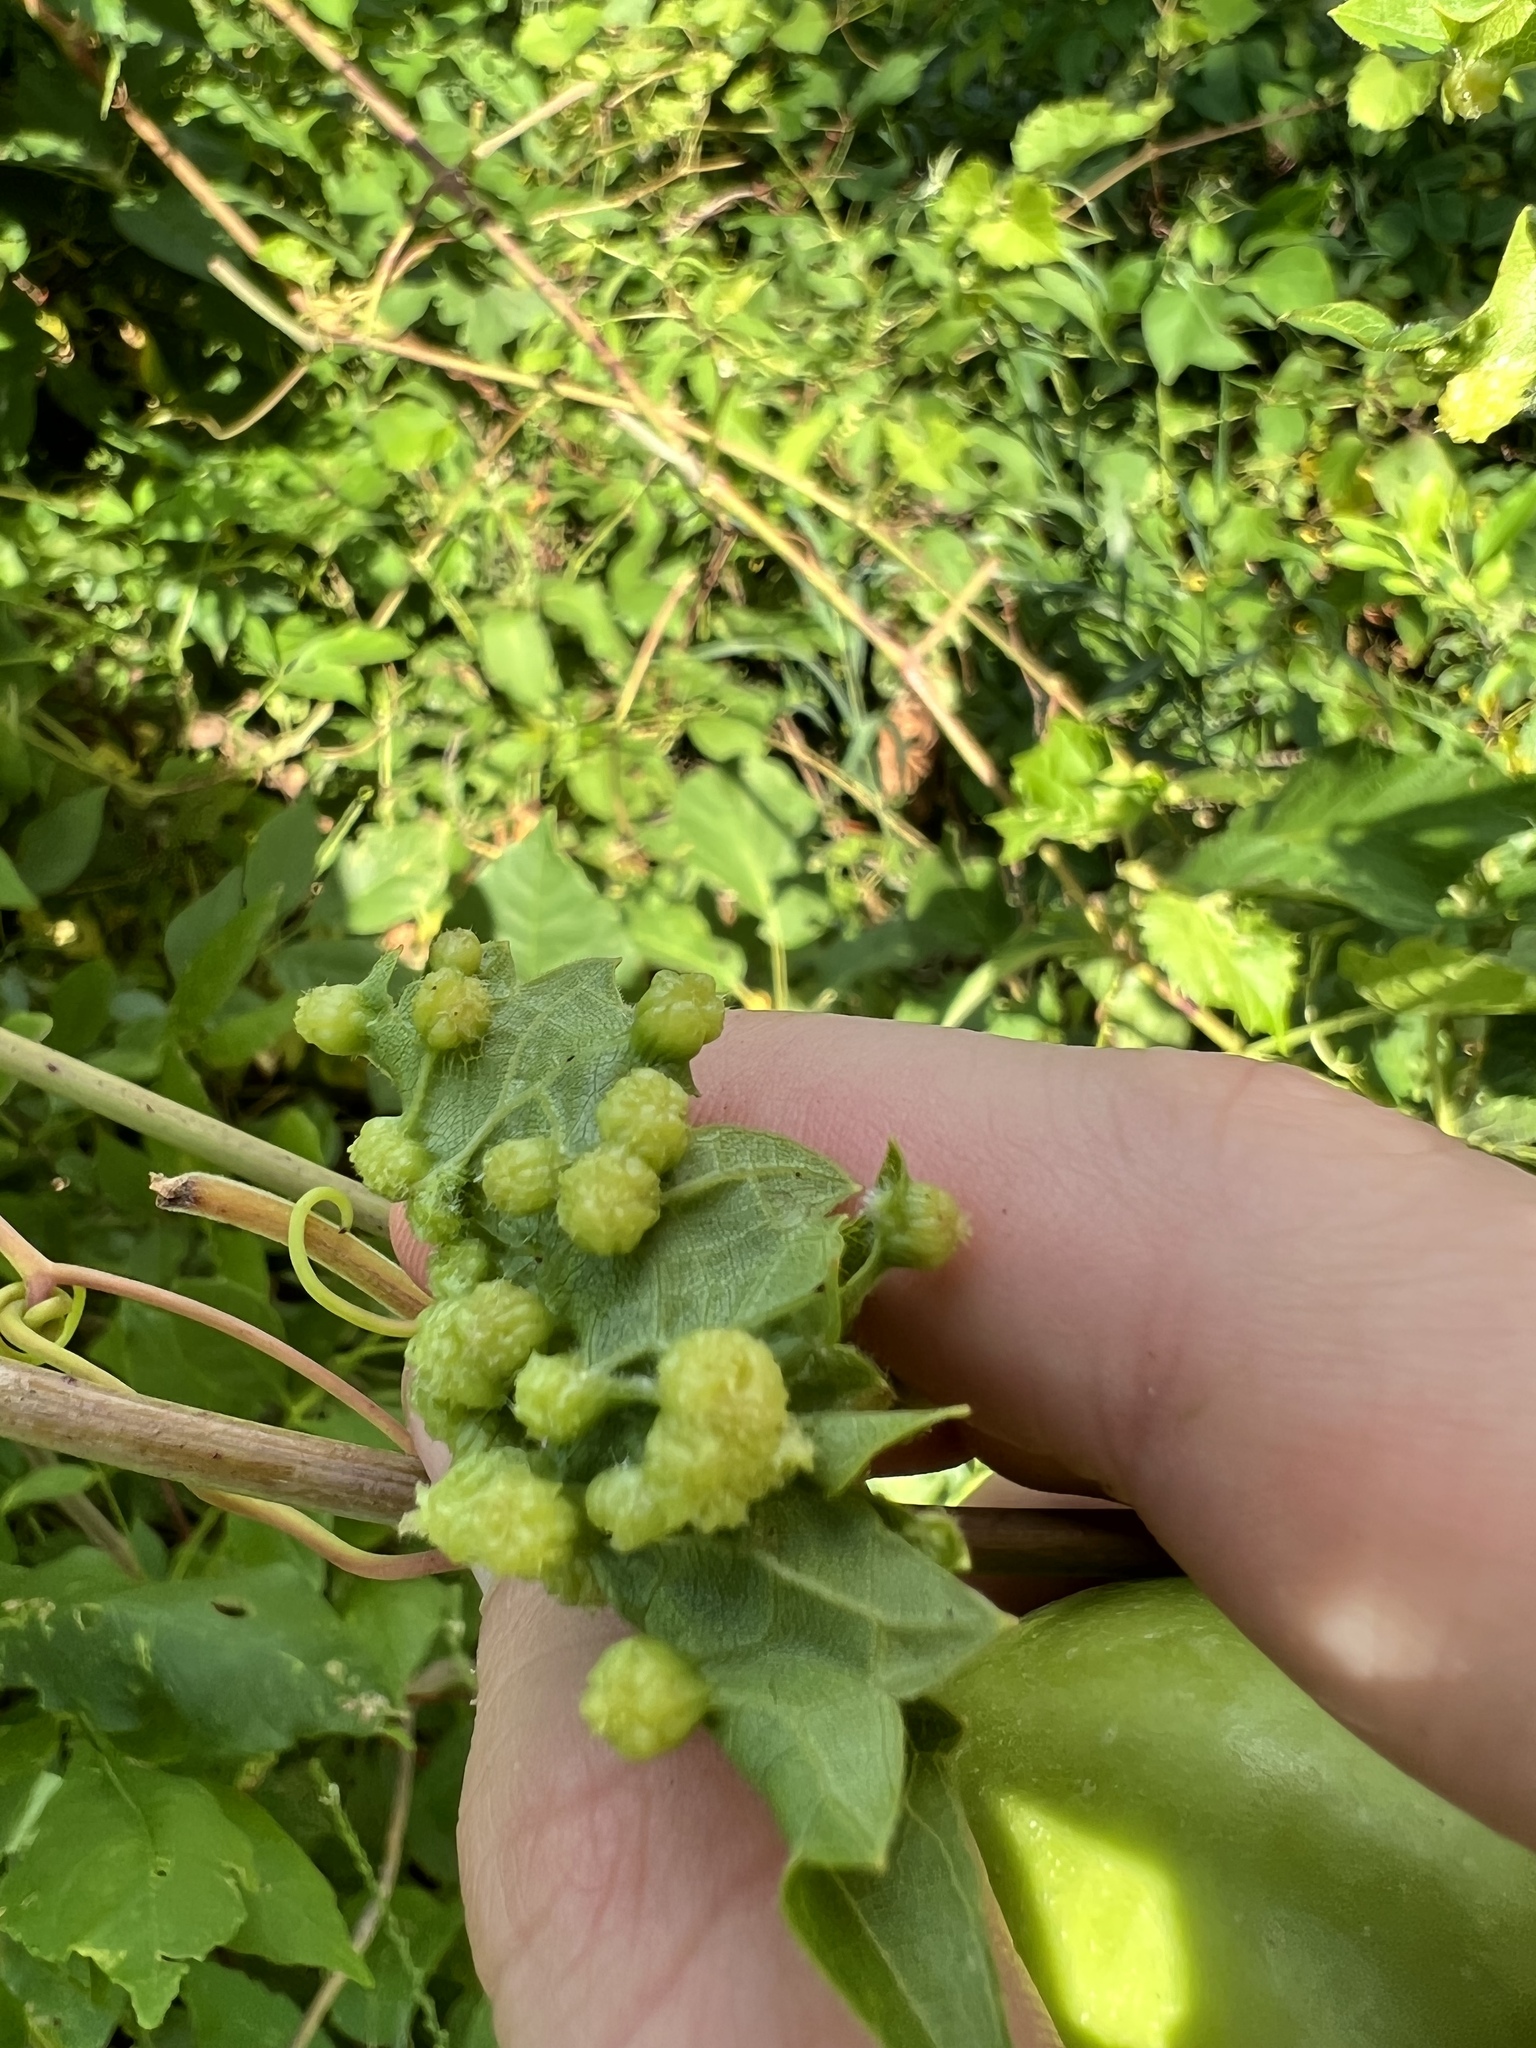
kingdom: Animalia
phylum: Arthropoda
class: Insecta
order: Hemiptera
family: Phylloxeridae
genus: Daktulosphaira
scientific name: Daktulosphaira vitifoliae
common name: Grape phylloxera
